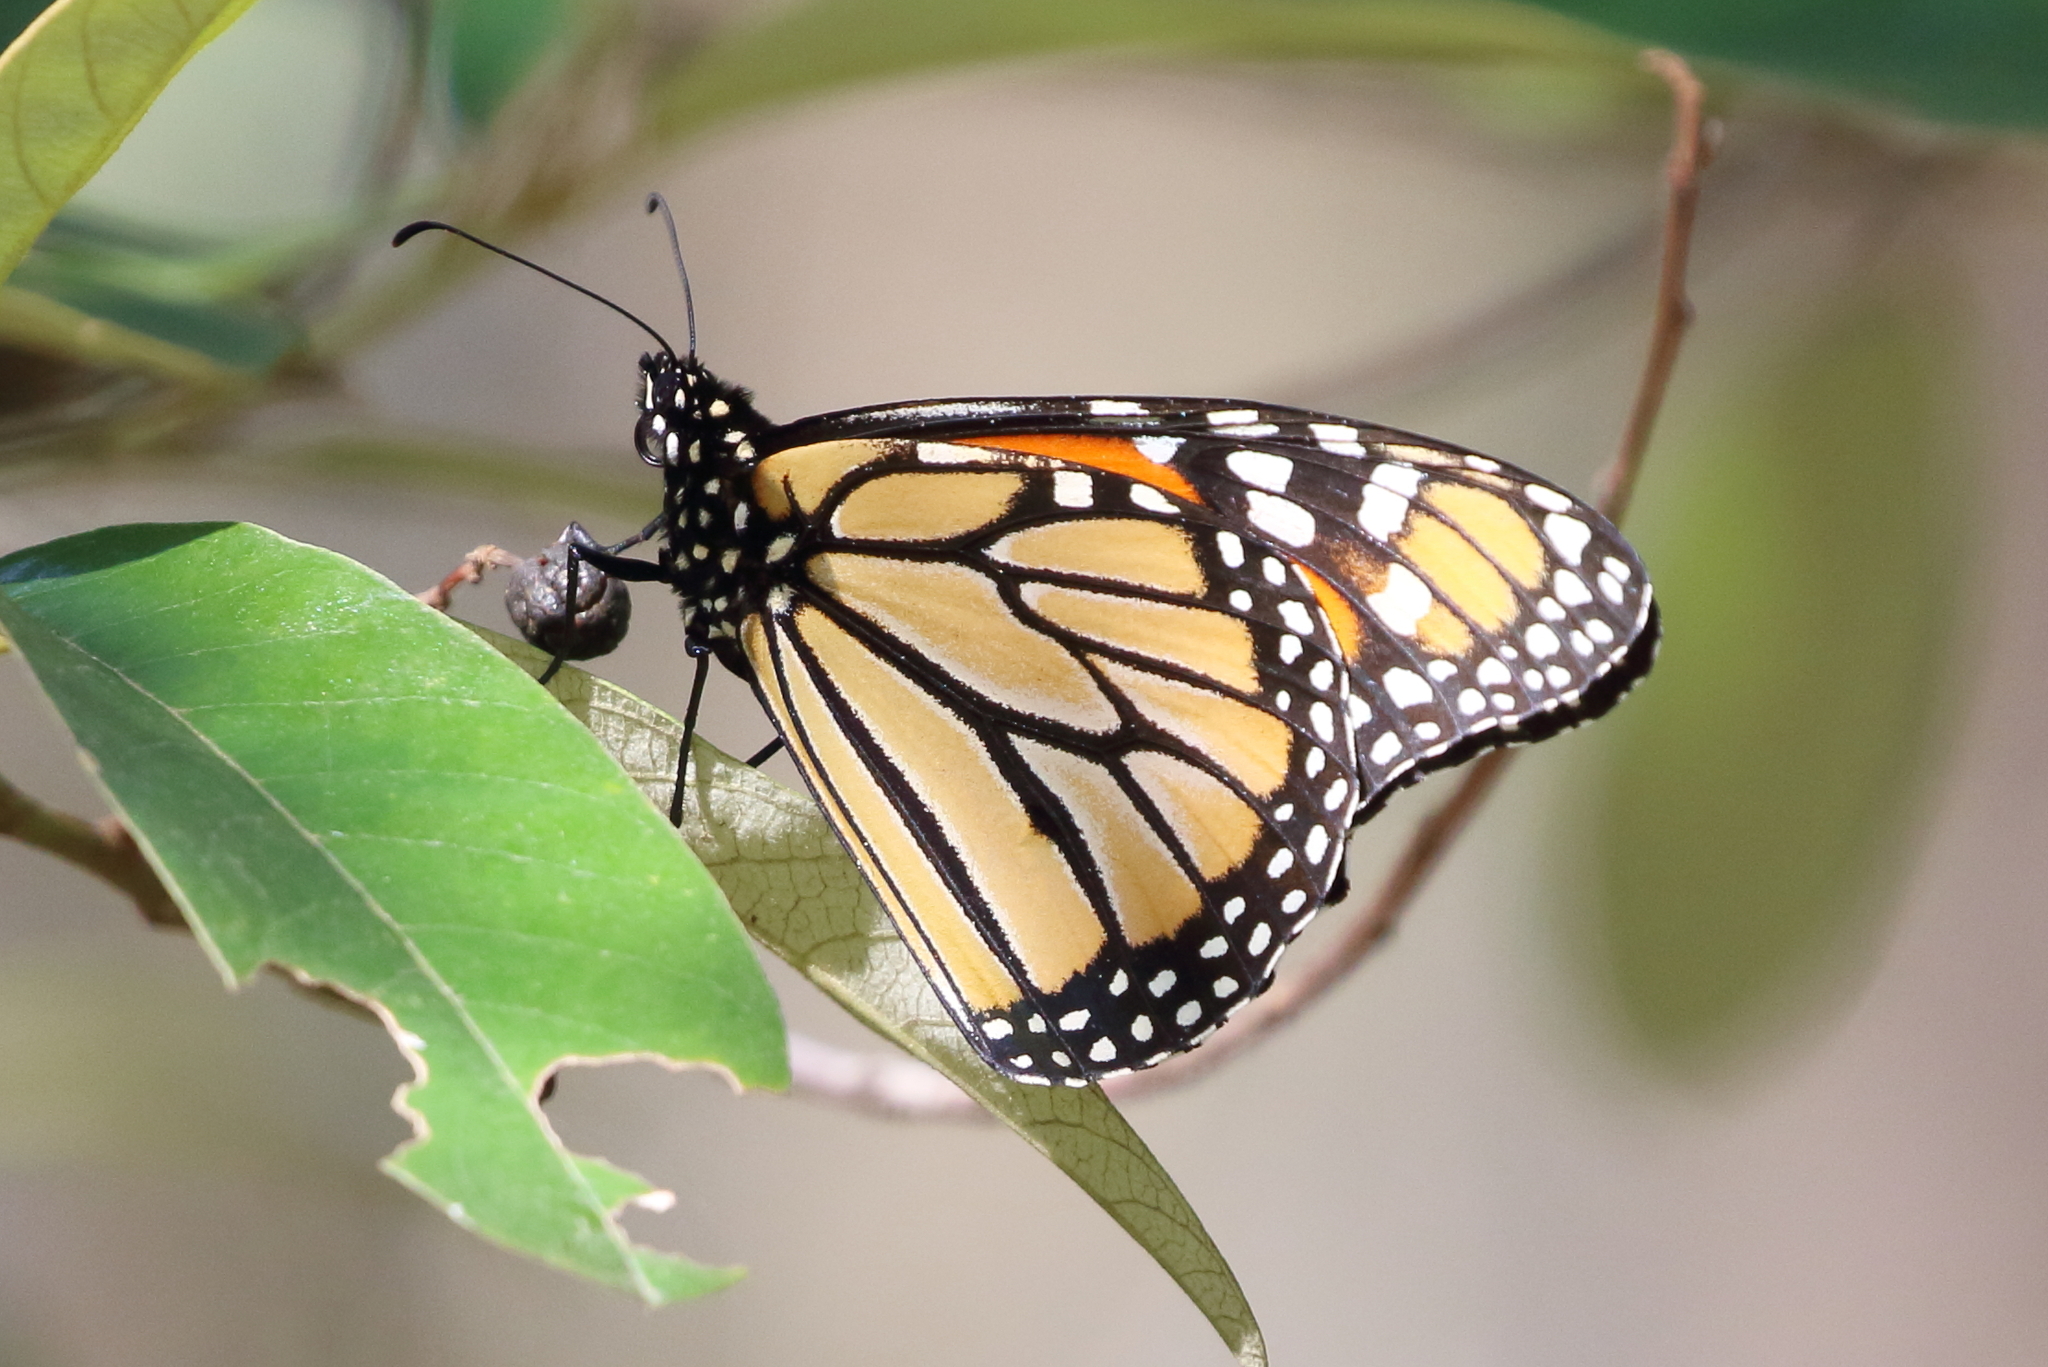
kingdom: Animalia
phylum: Arthropoda
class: Insecta
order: Lepidoptera
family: Nymphalidae
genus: Danaus
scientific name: Danaus plexippus
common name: Monarch
